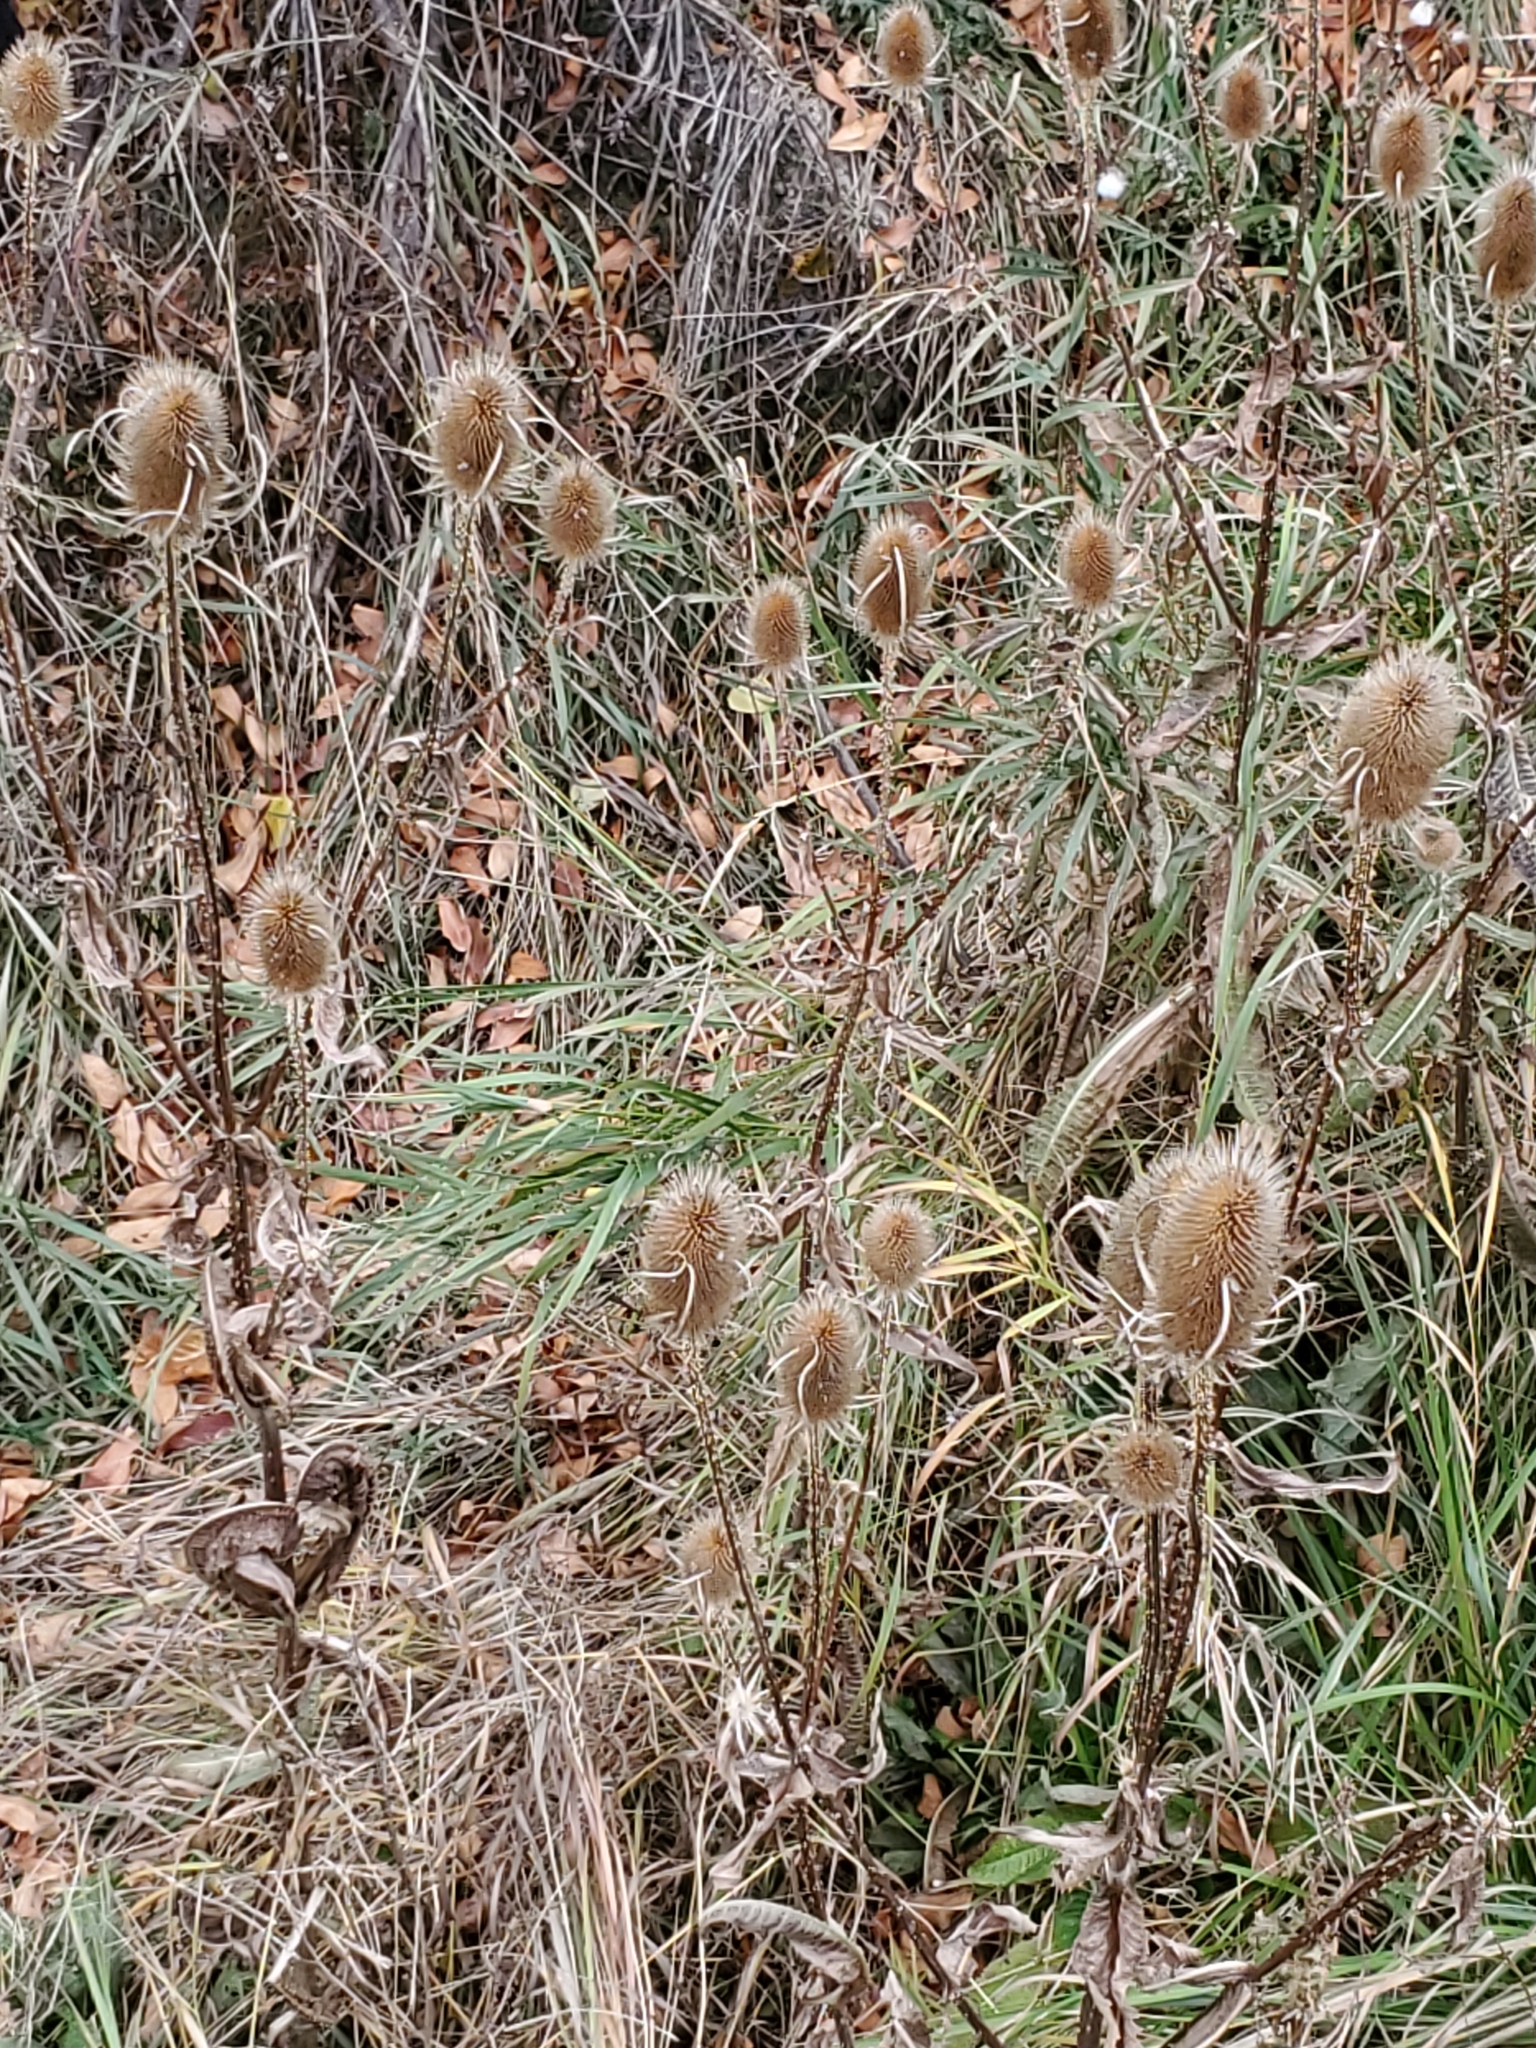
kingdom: Plantae
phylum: Tracheophyta
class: Magnoliopsida
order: Dipsacales
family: Caprifoliaceae
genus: Dipsacus
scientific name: Dipsacus fullonum
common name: Teasel
